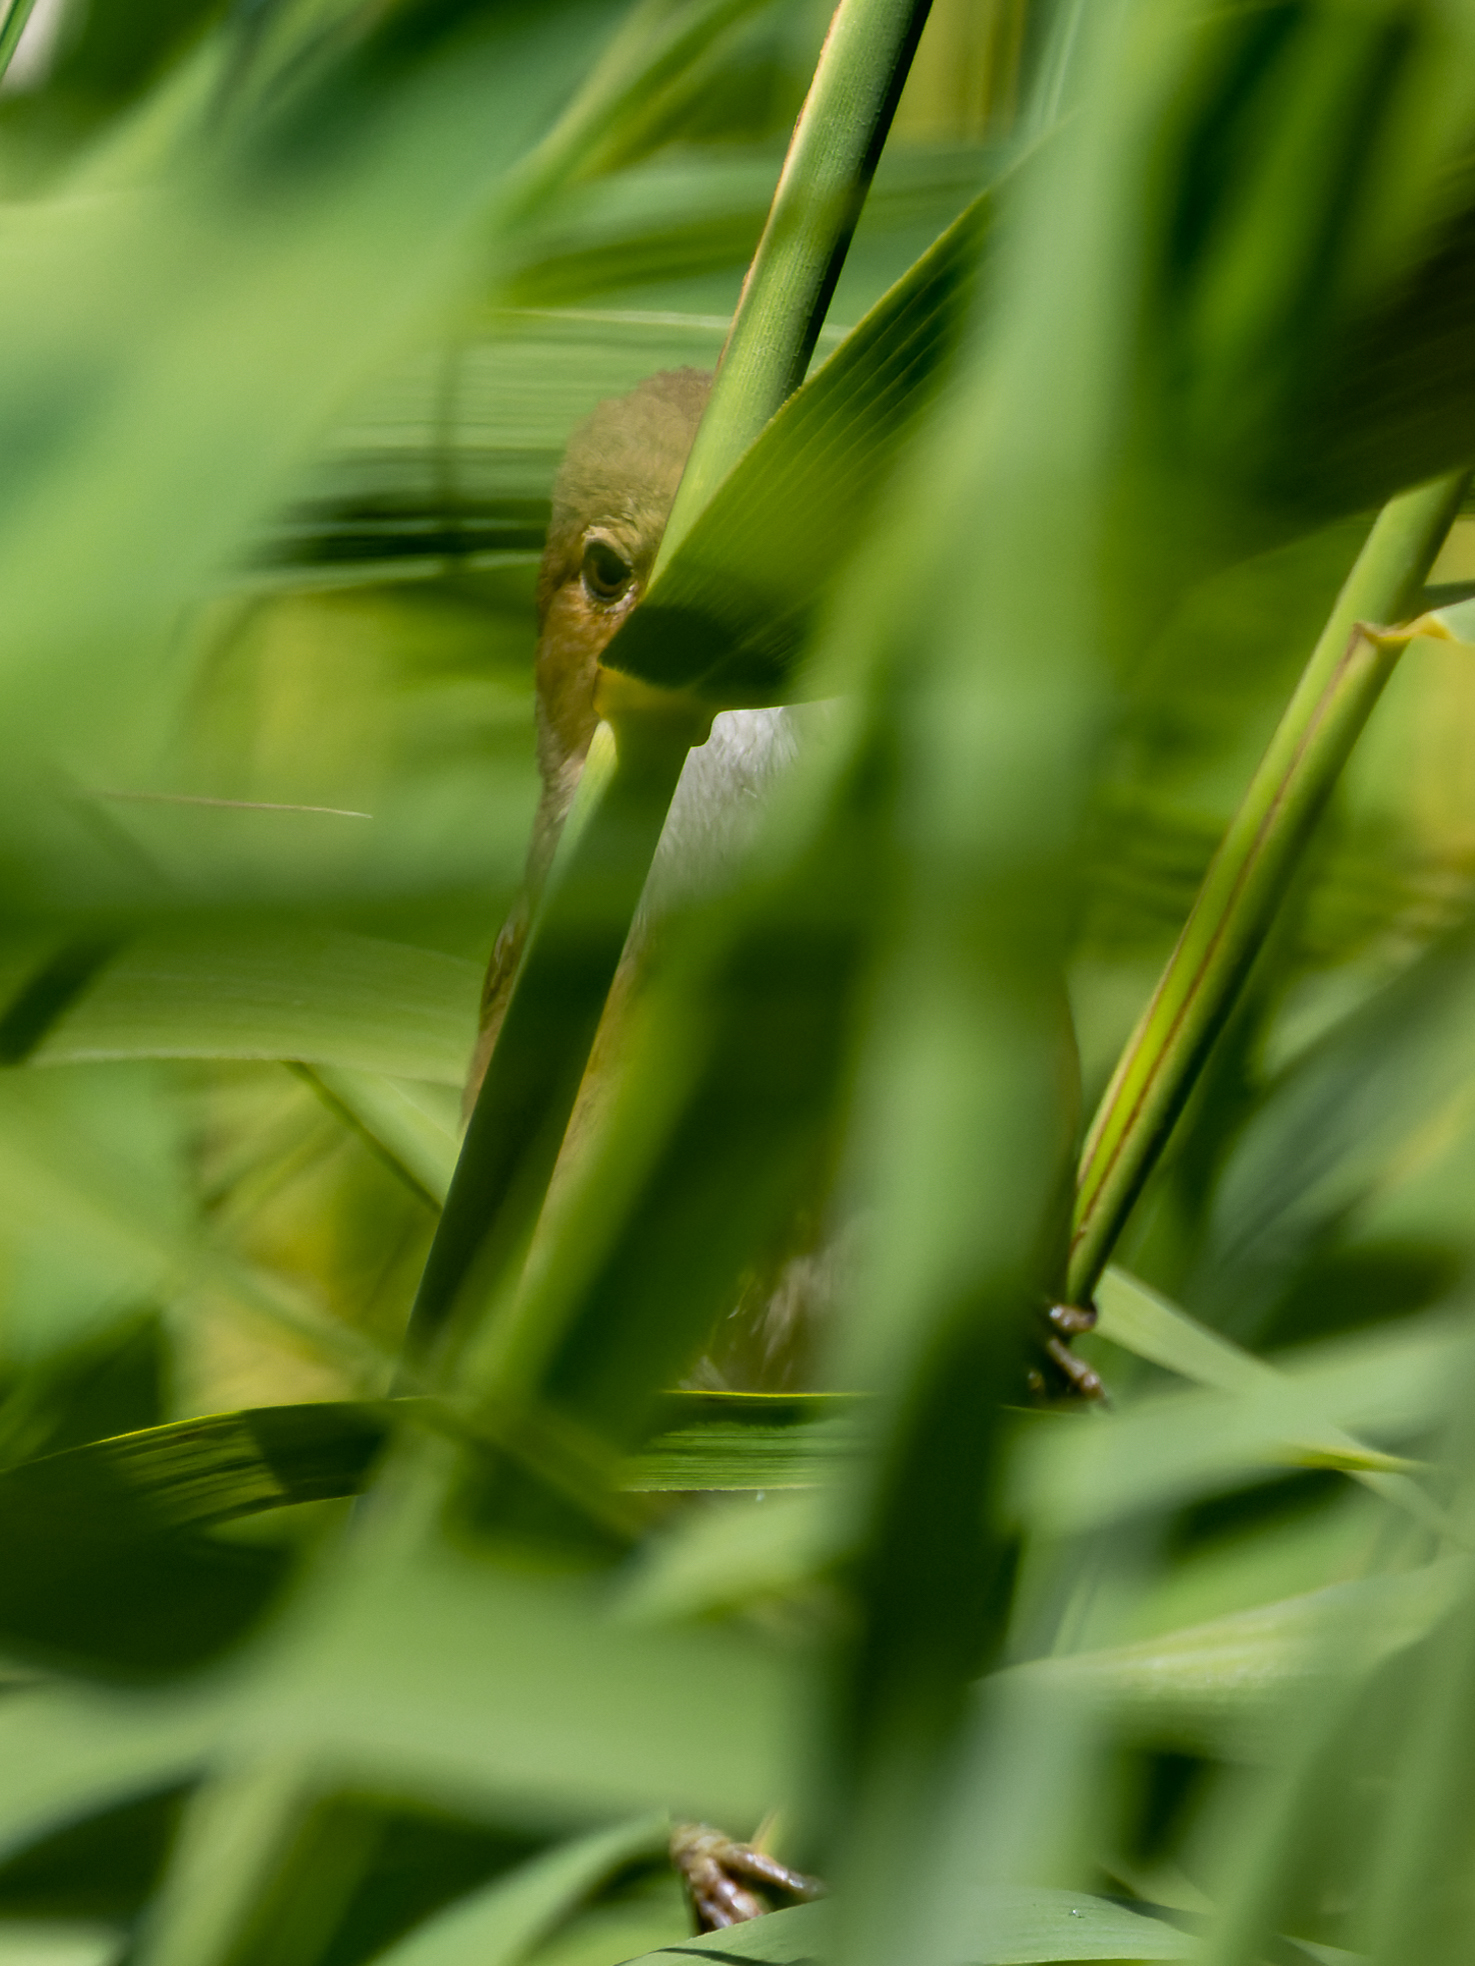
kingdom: Animalia
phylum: Chordata
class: Aves
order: Passeriformes
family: Acrocephalidae
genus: Acrocephalus
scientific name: Acrocephalus scirpaceus
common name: Eurasian reed warbler
